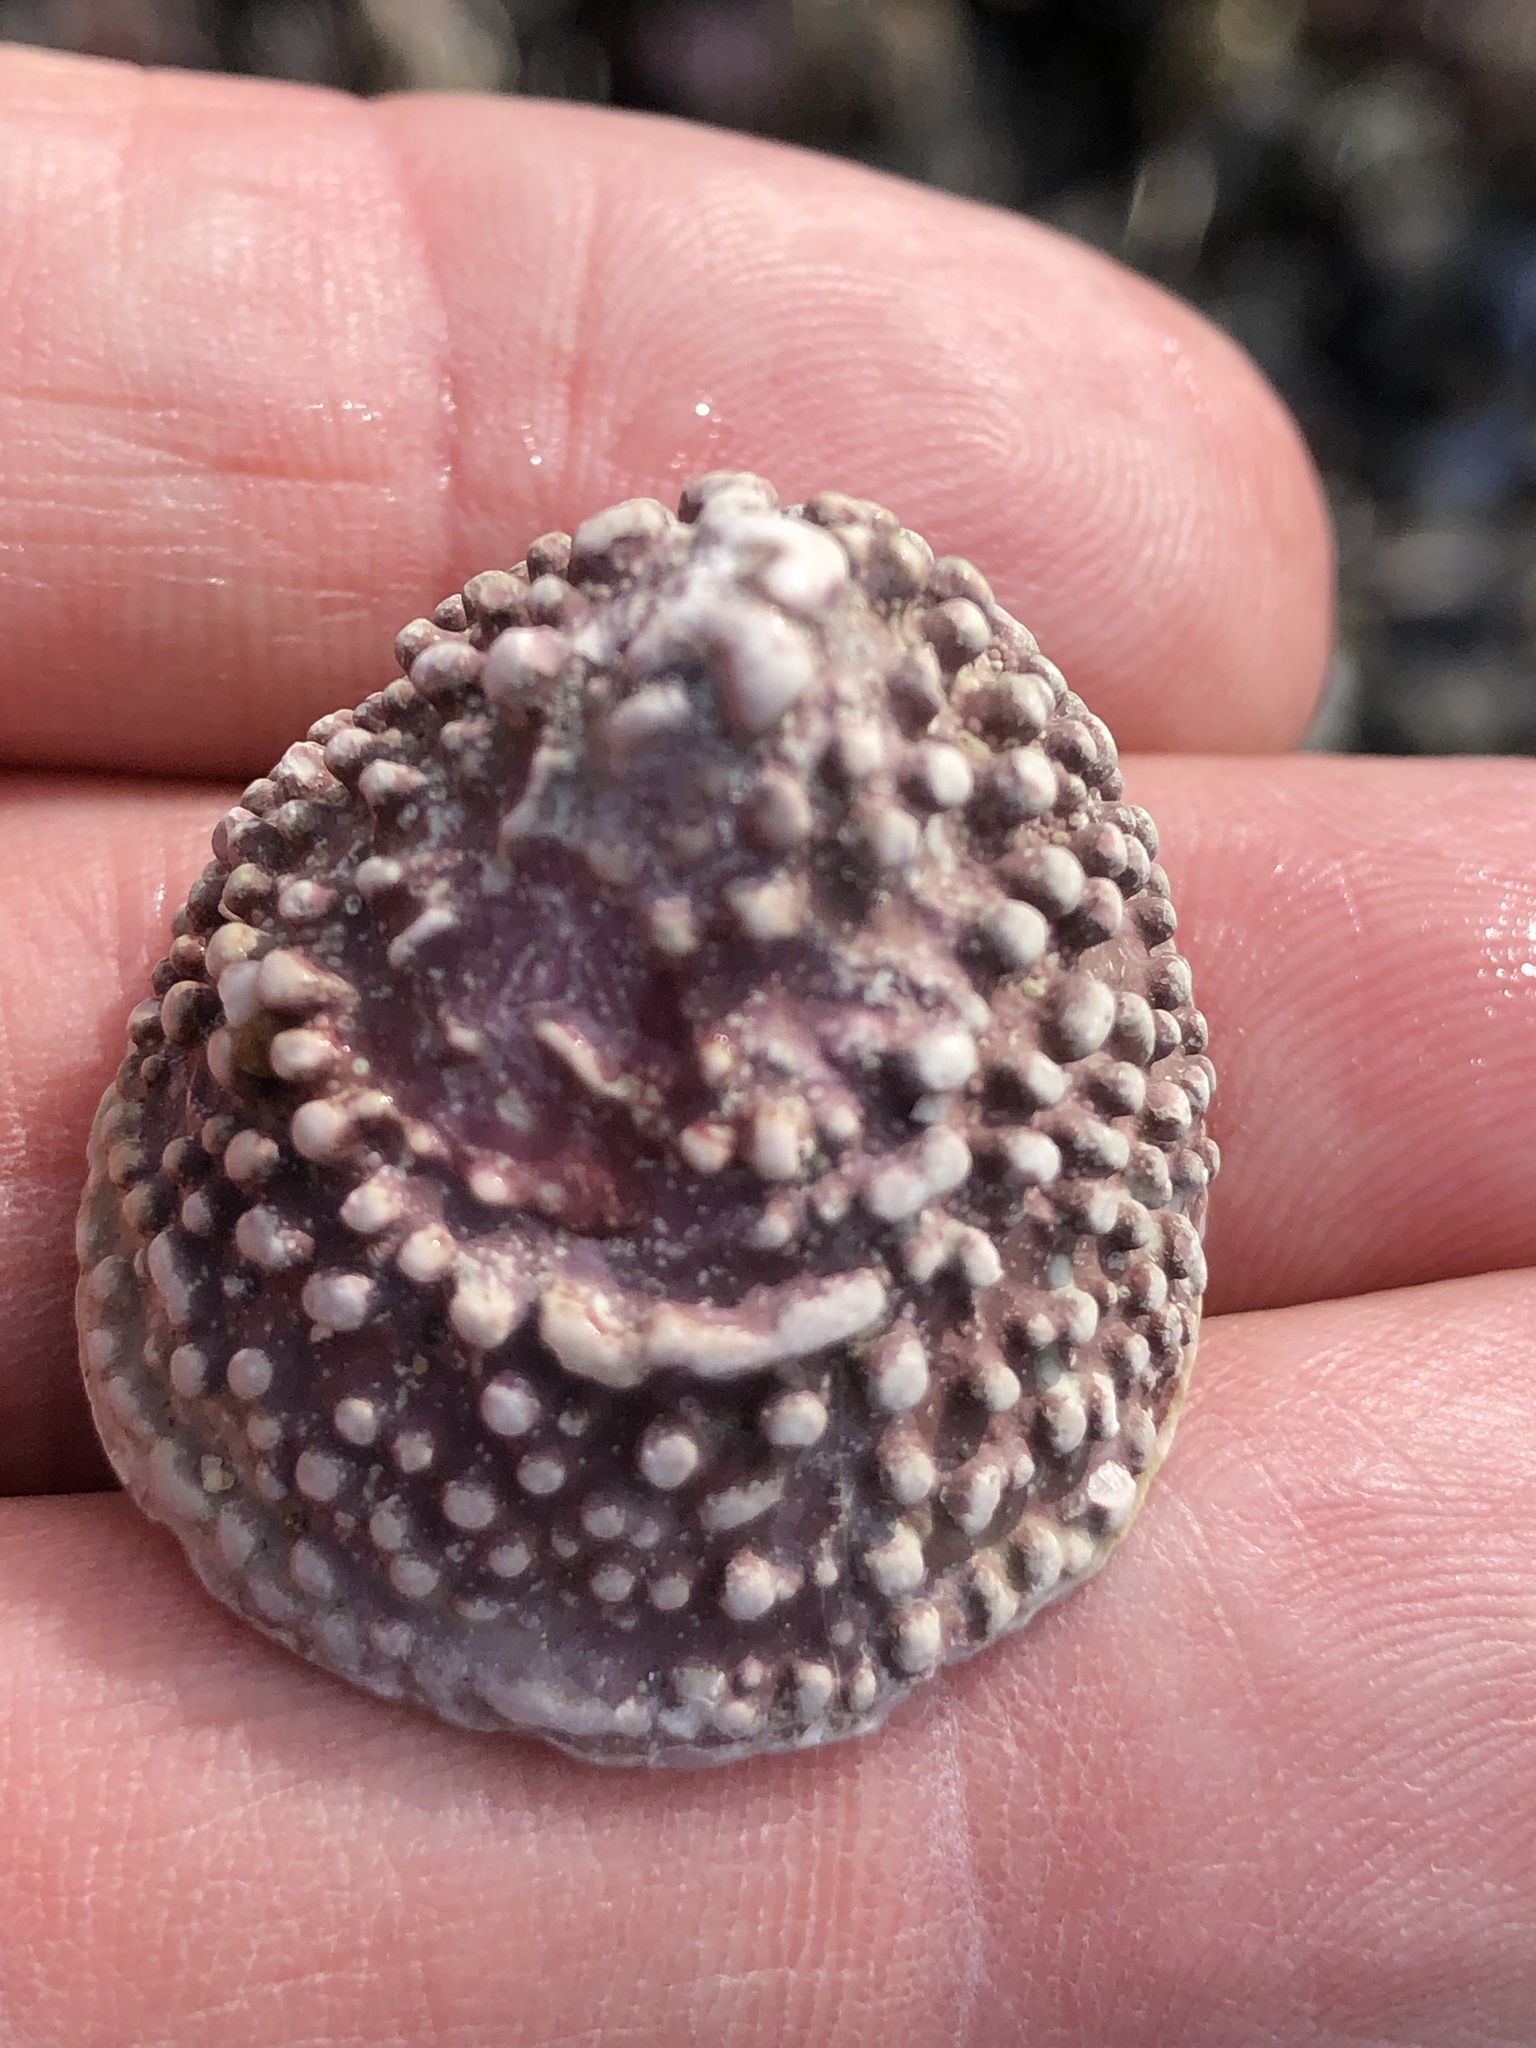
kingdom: Animalia
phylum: Mollusca
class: Gastropoda
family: Acmaeidae
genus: Acmaea
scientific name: Acmaea mitra
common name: Pacific white cap limpet
